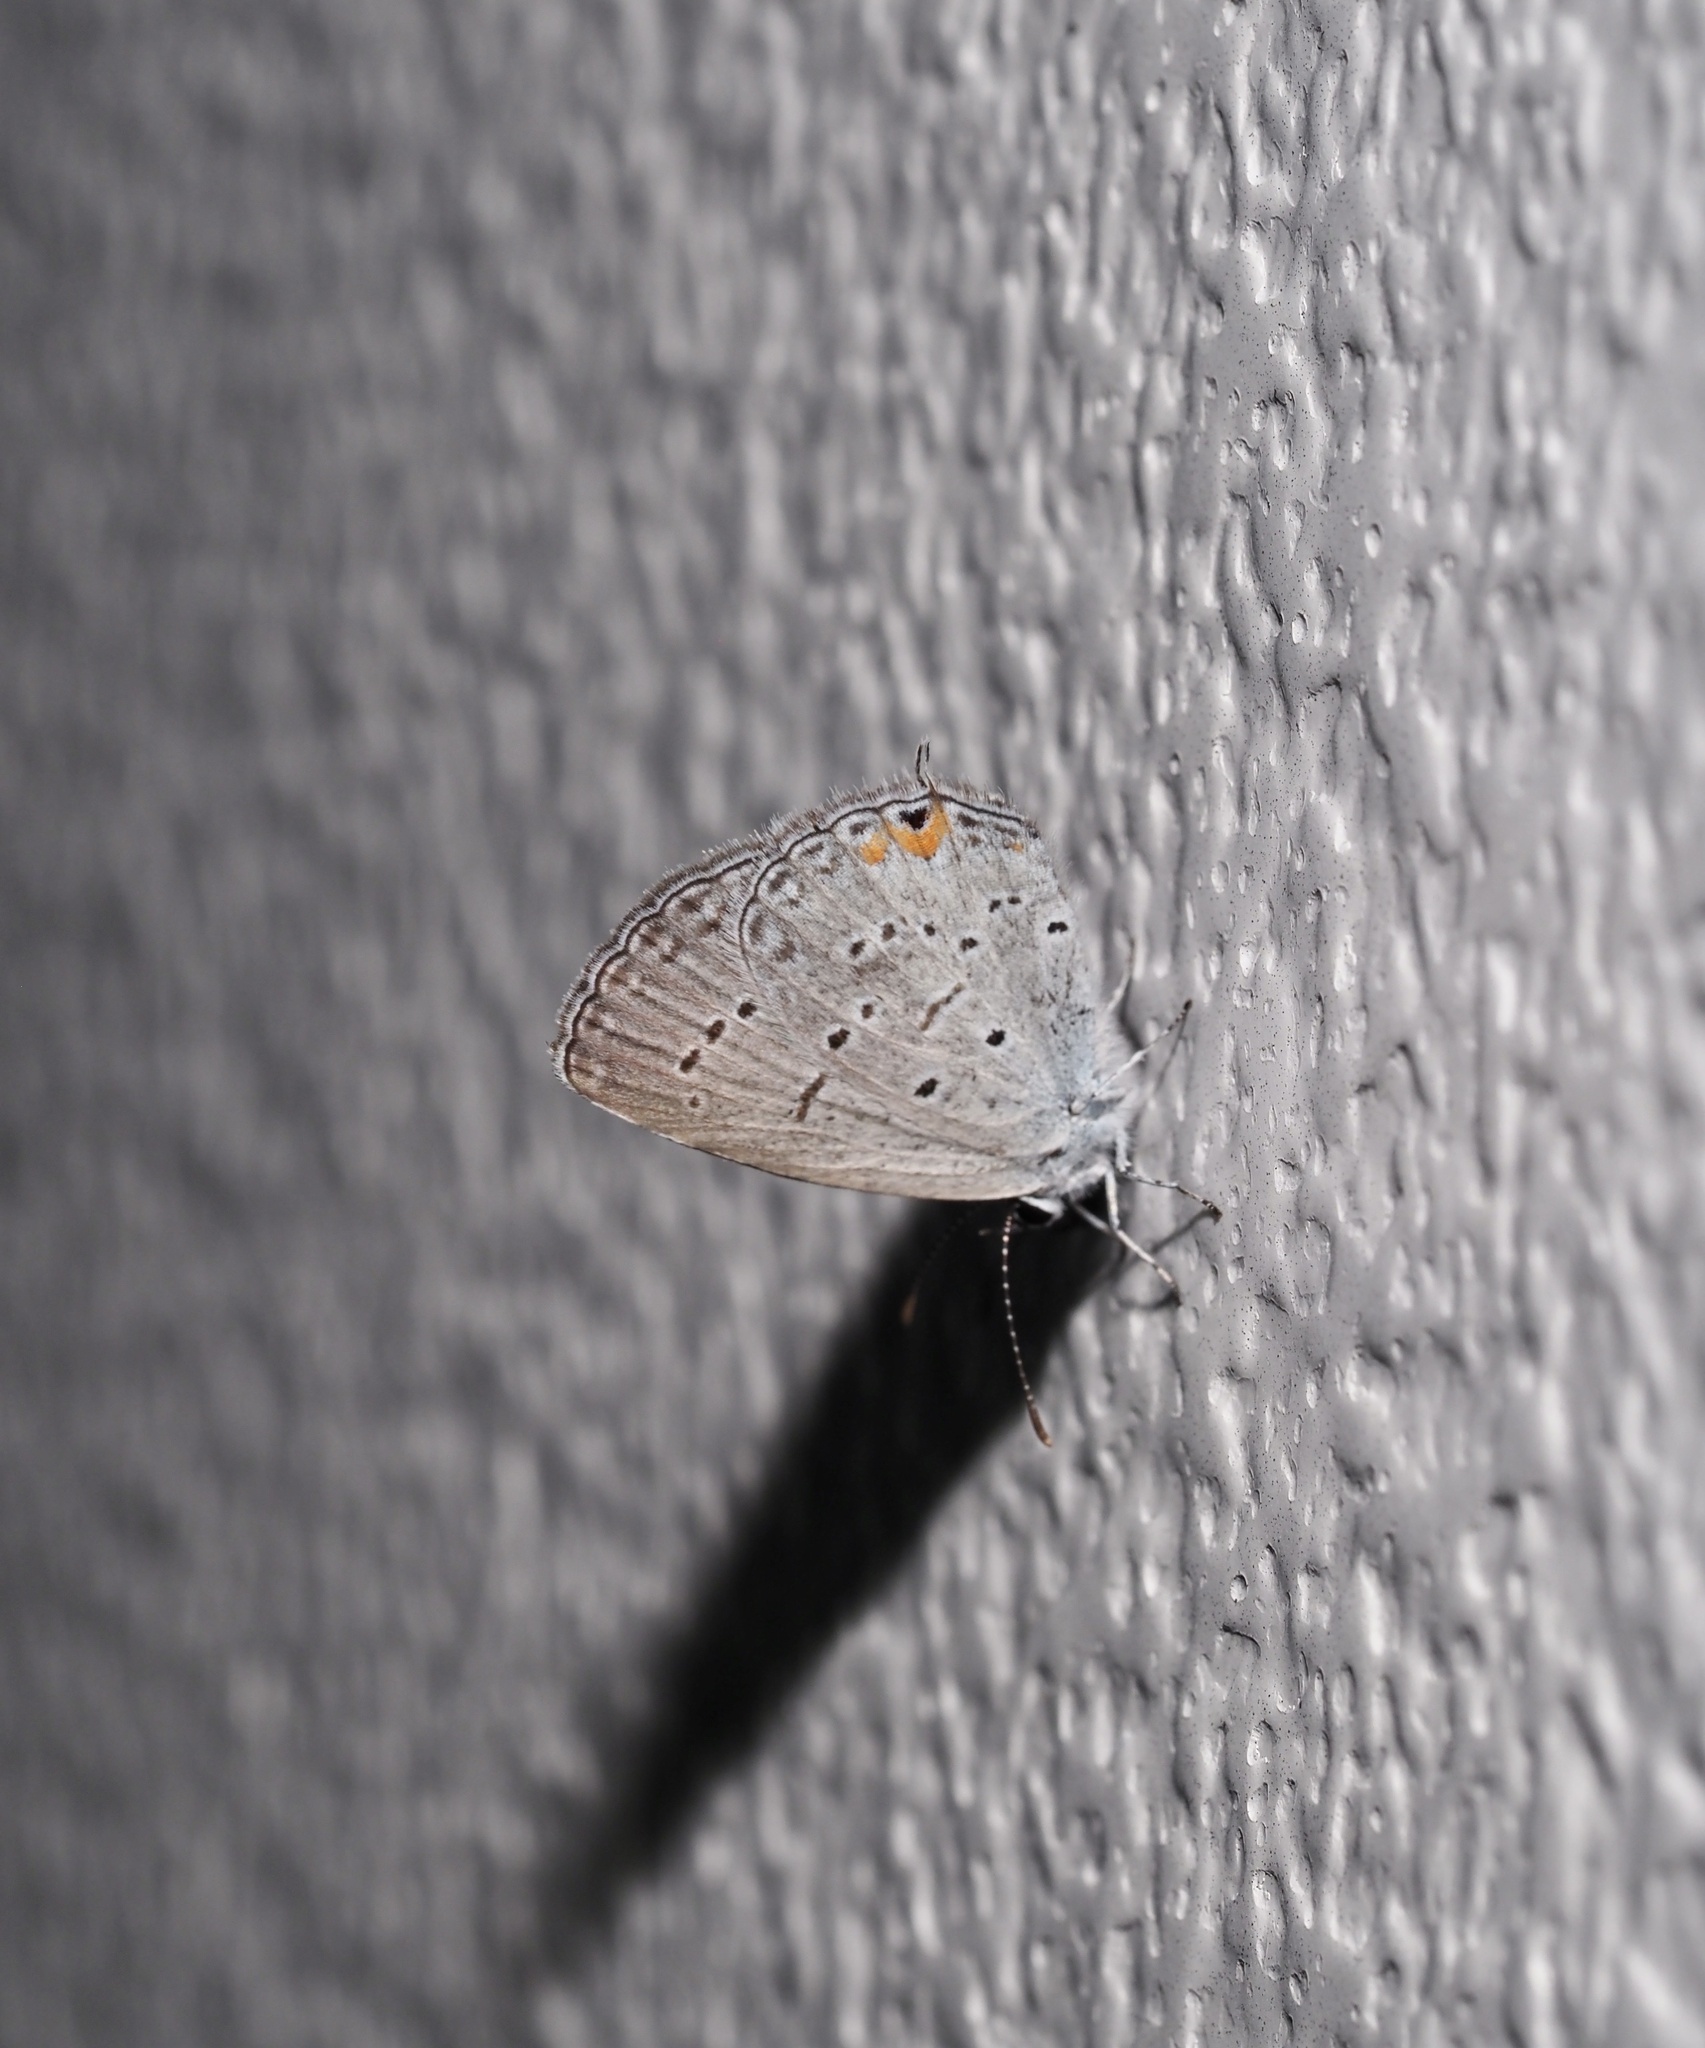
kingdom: Animalia
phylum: Arthropoda
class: Insecta
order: Lepidoptera
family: Lycaenidae
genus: Elkalyce
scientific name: Elkalyce comyntas
